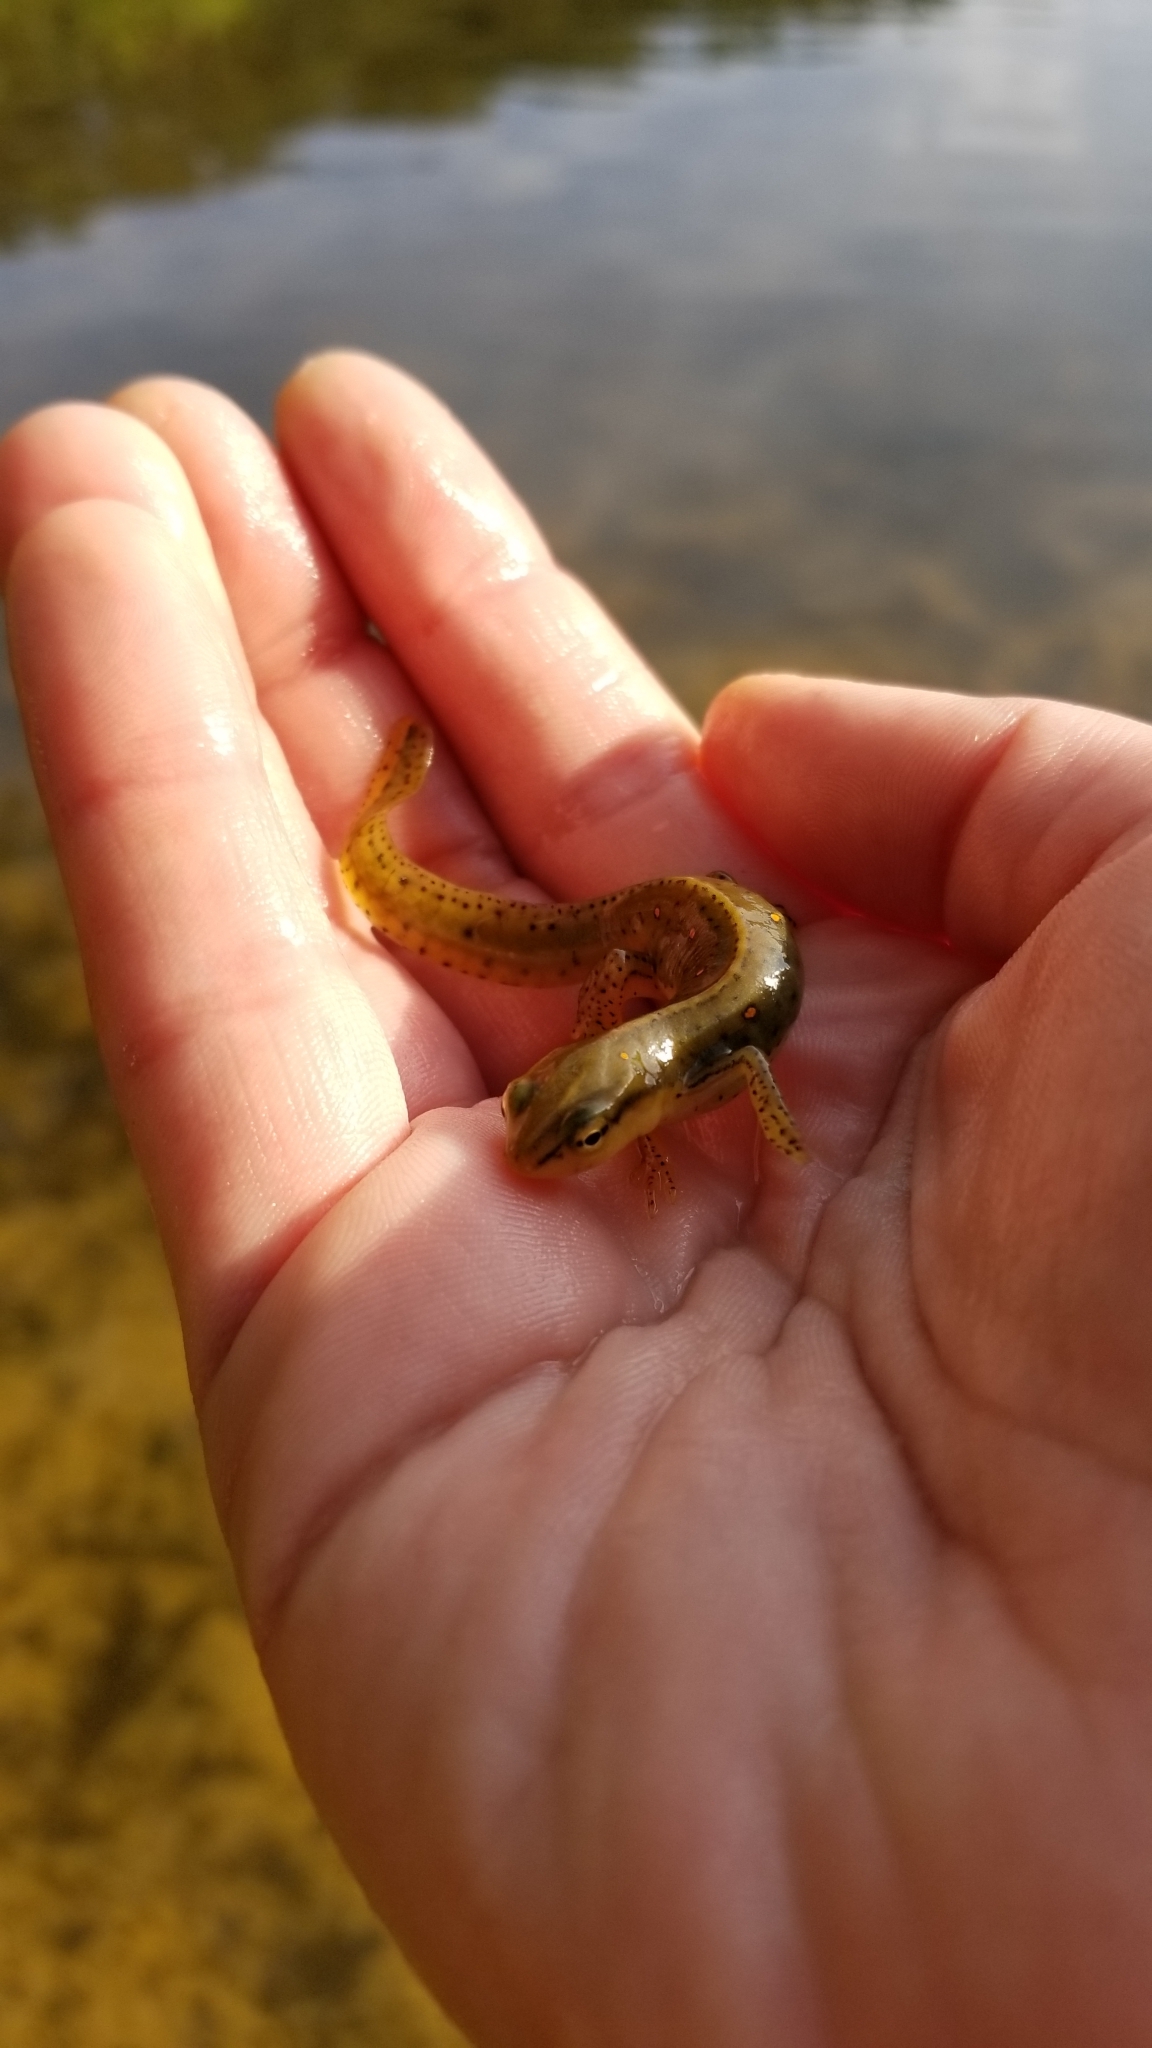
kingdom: Animalia
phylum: Chordata
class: Amphibia
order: Caudata
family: Salamandridae
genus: Notophthalmus
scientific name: Notophthalmus viridescens
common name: Eastern newt
